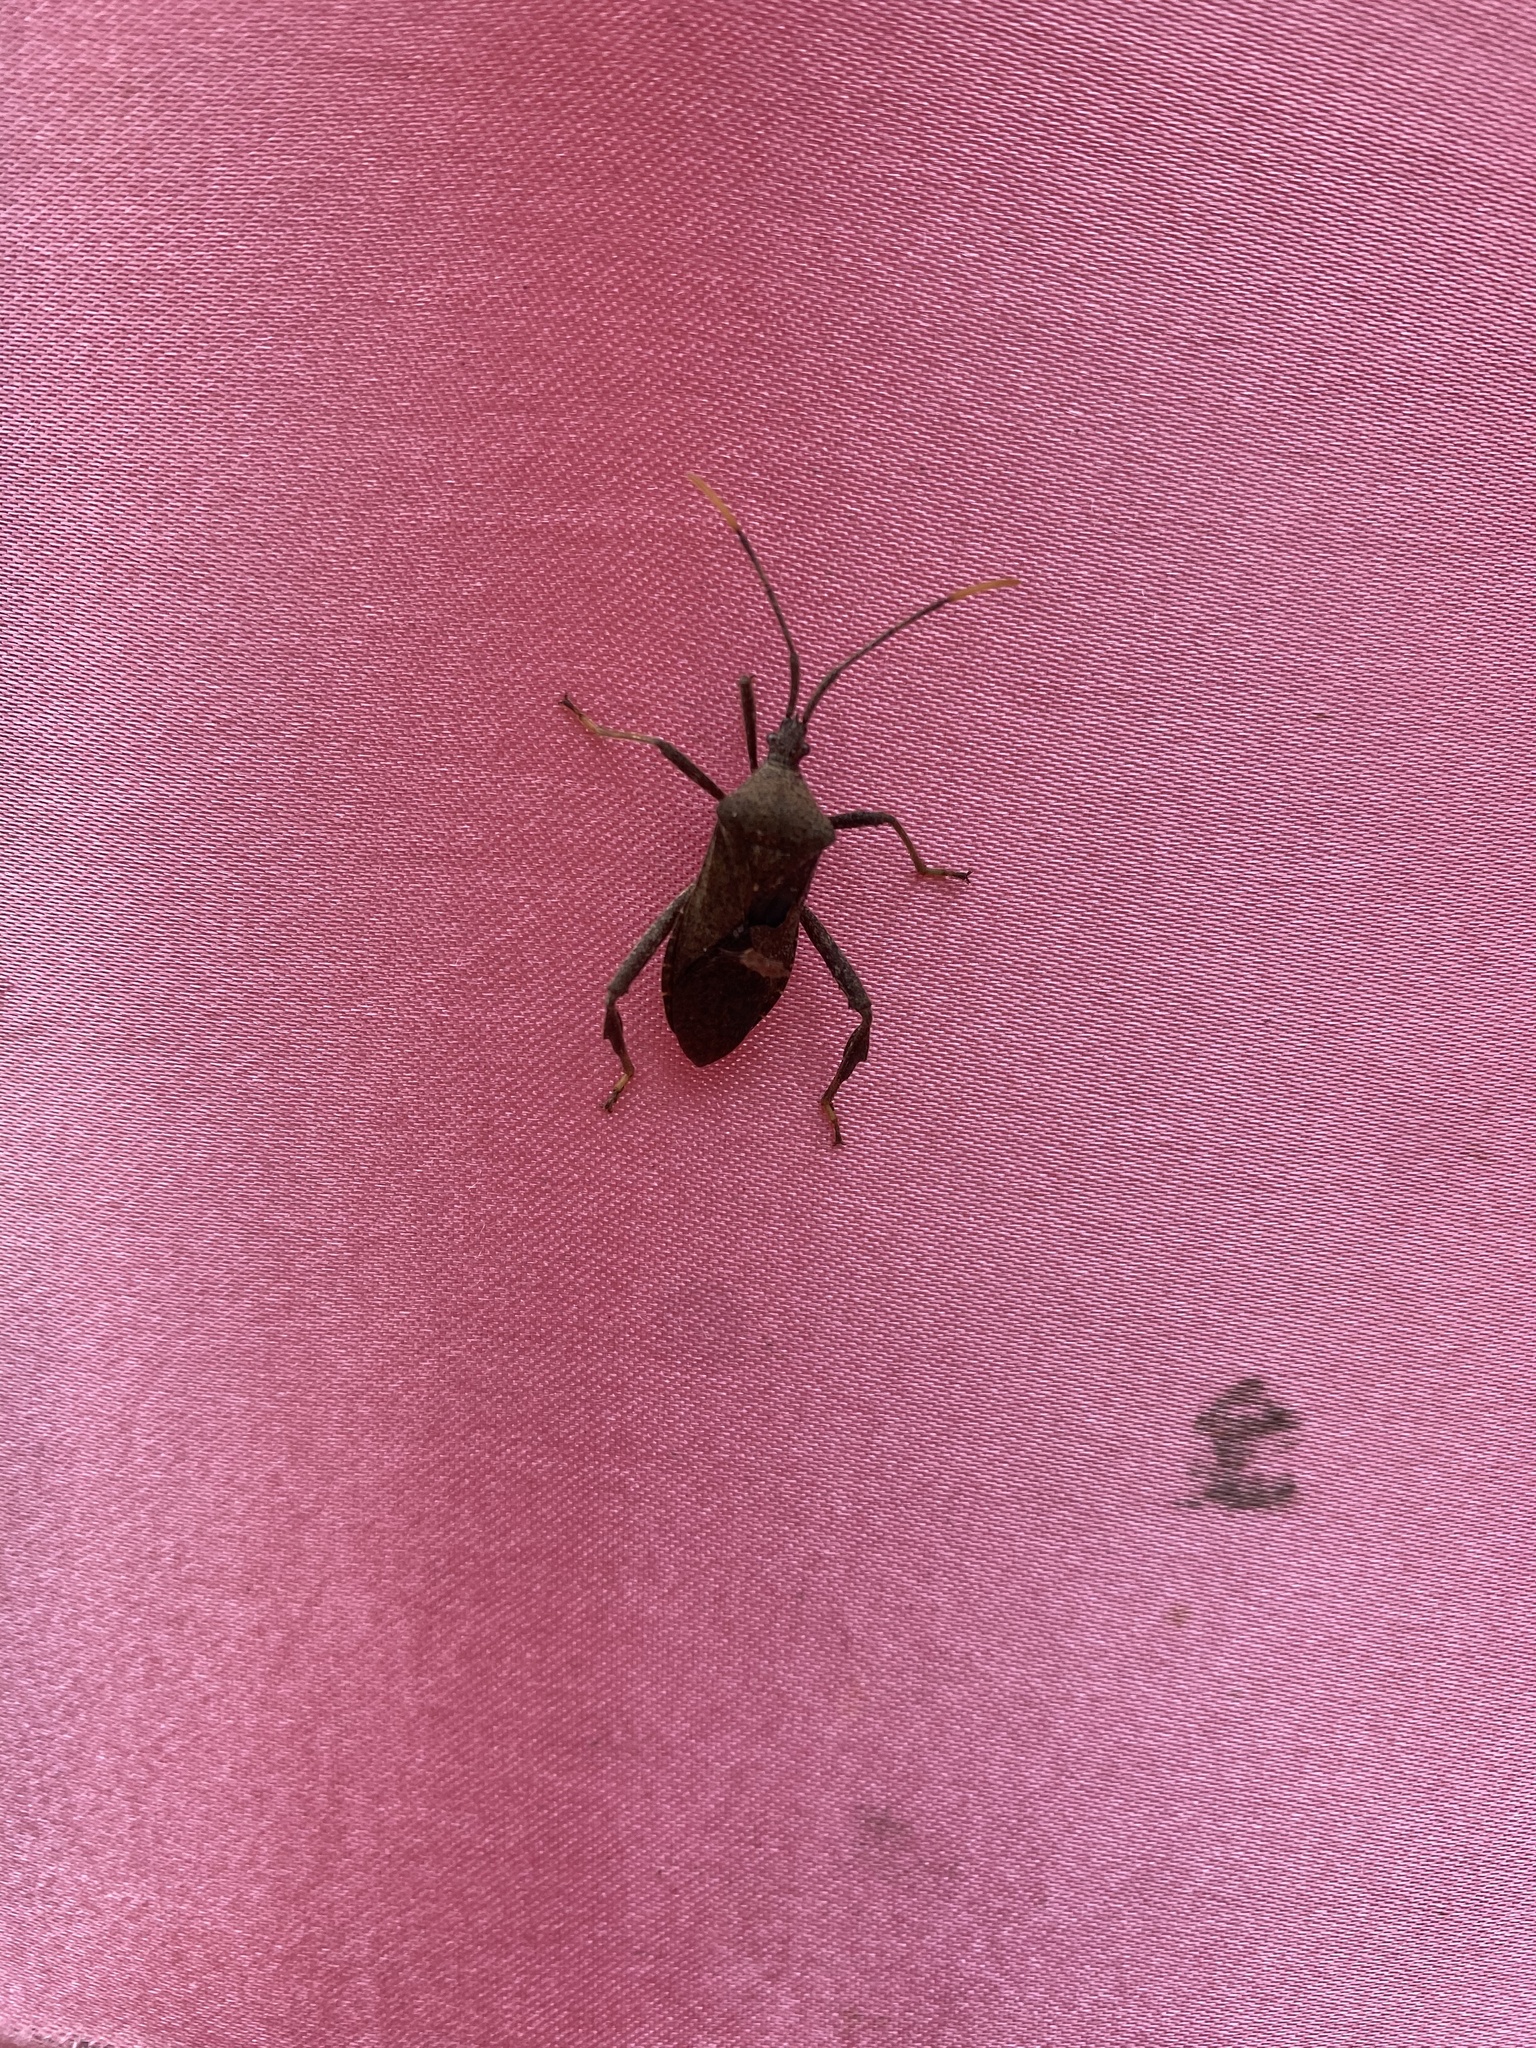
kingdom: Animalia
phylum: Arthropoda
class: Insecta
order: Hemiptera
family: Coreidae
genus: Acanthocephala
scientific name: Acanthocephala terminalis
